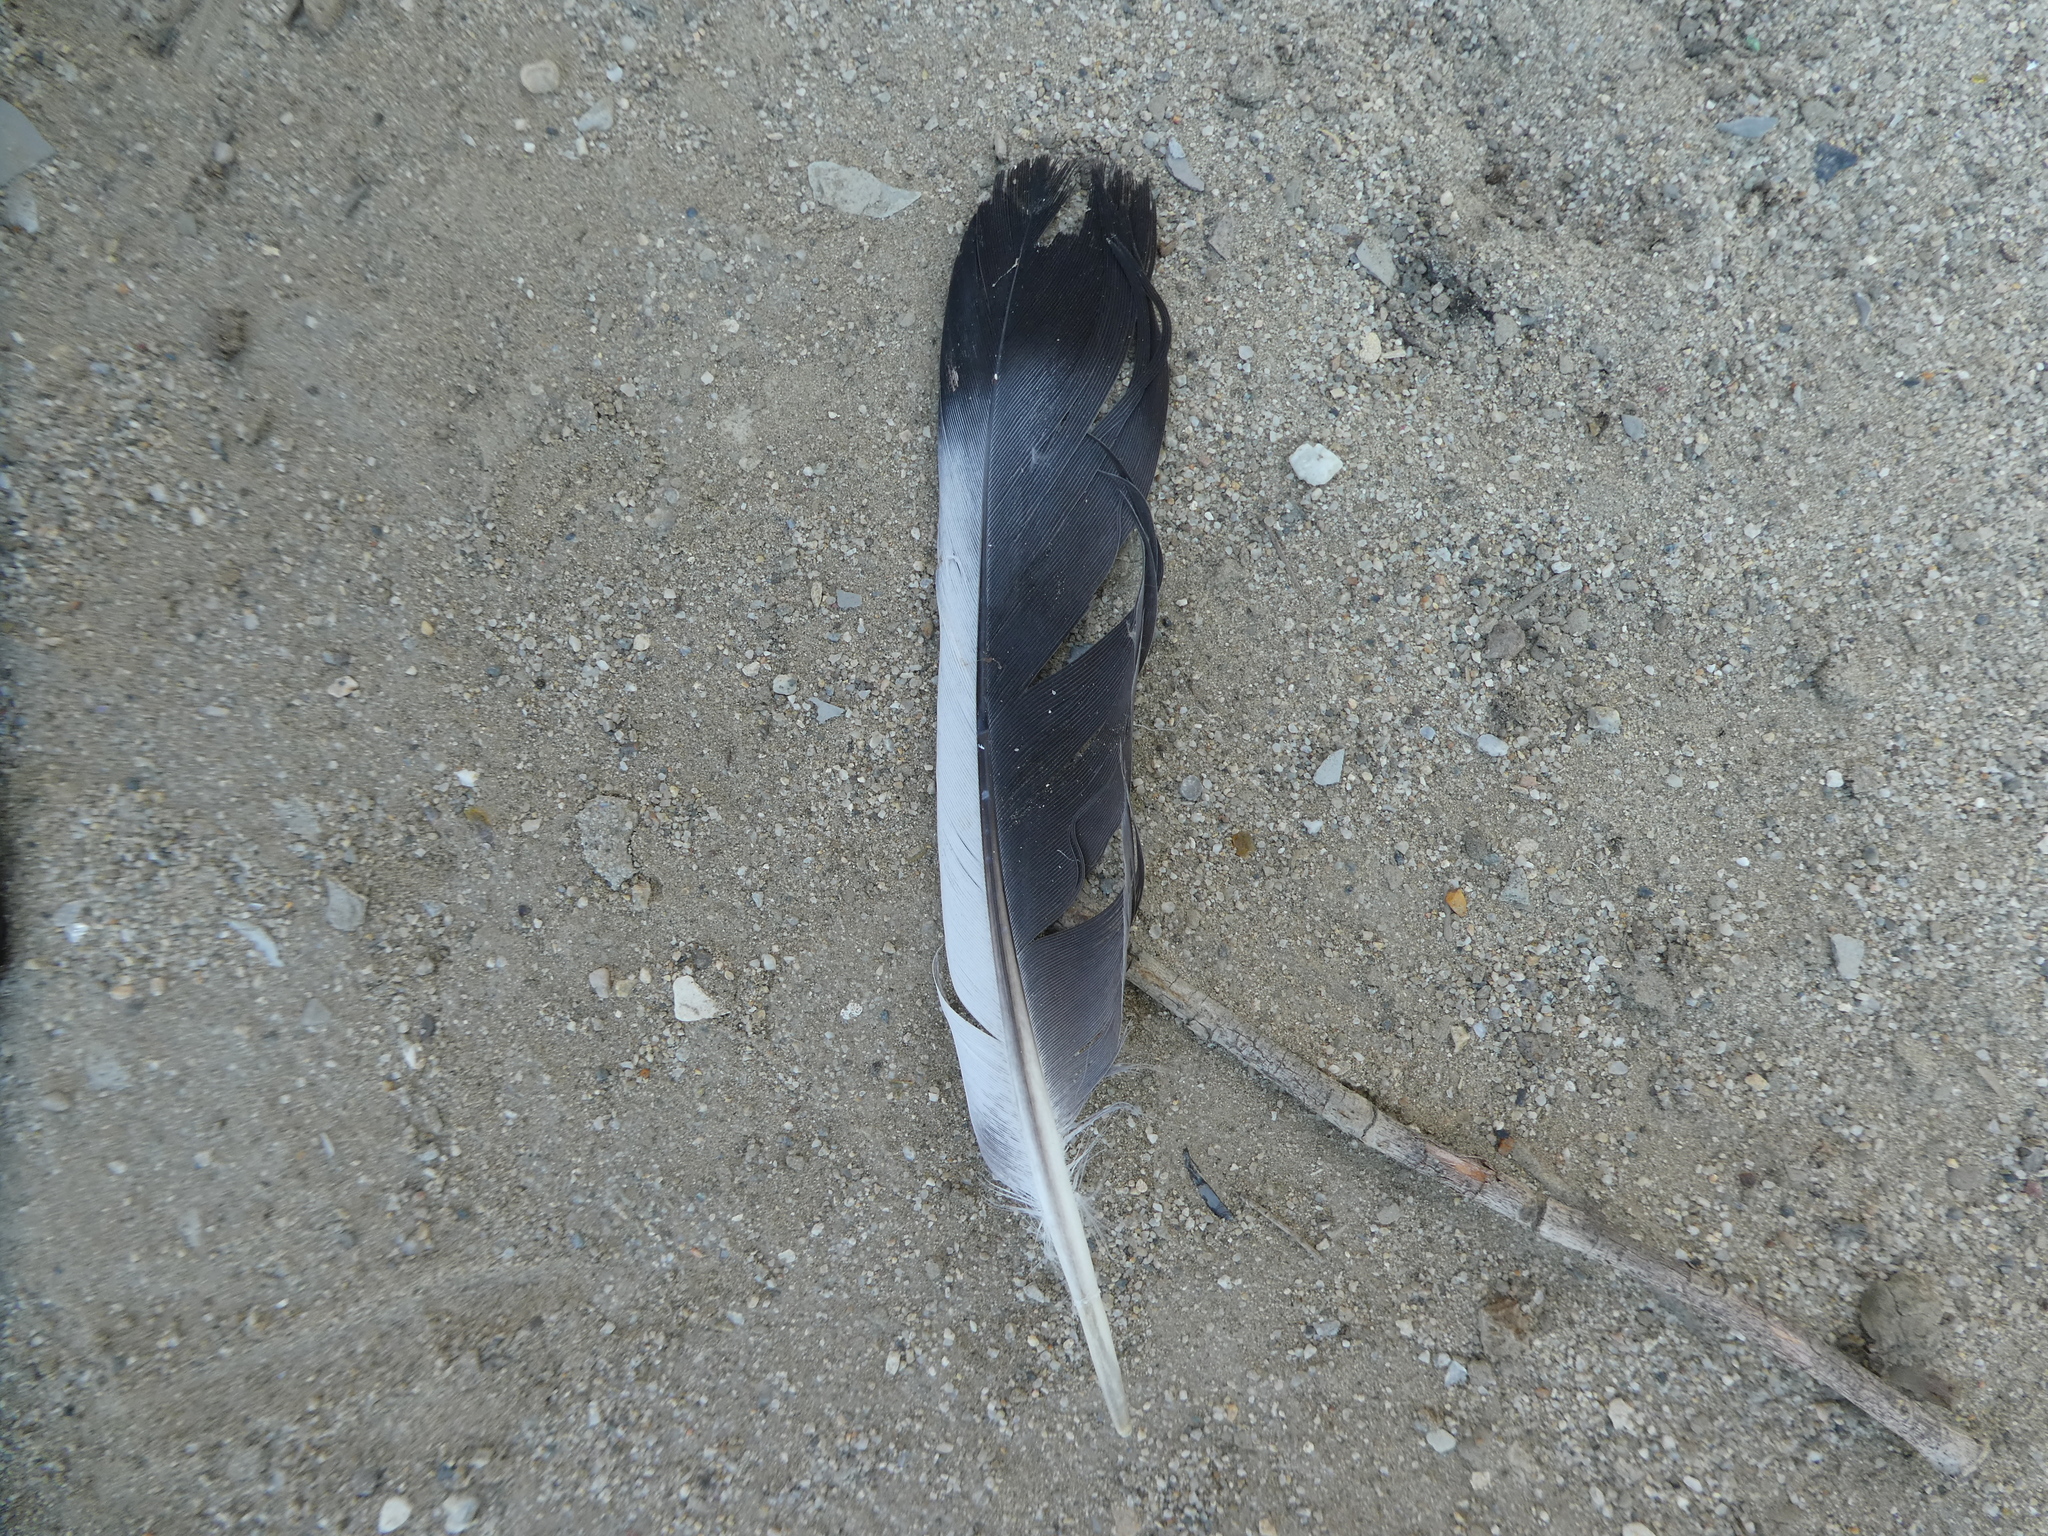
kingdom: Animalia
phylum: Chordata
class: Aves
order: Columbiformes
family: Columbidae
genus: Columba
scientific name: Columba livia
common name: Rock pigeon
